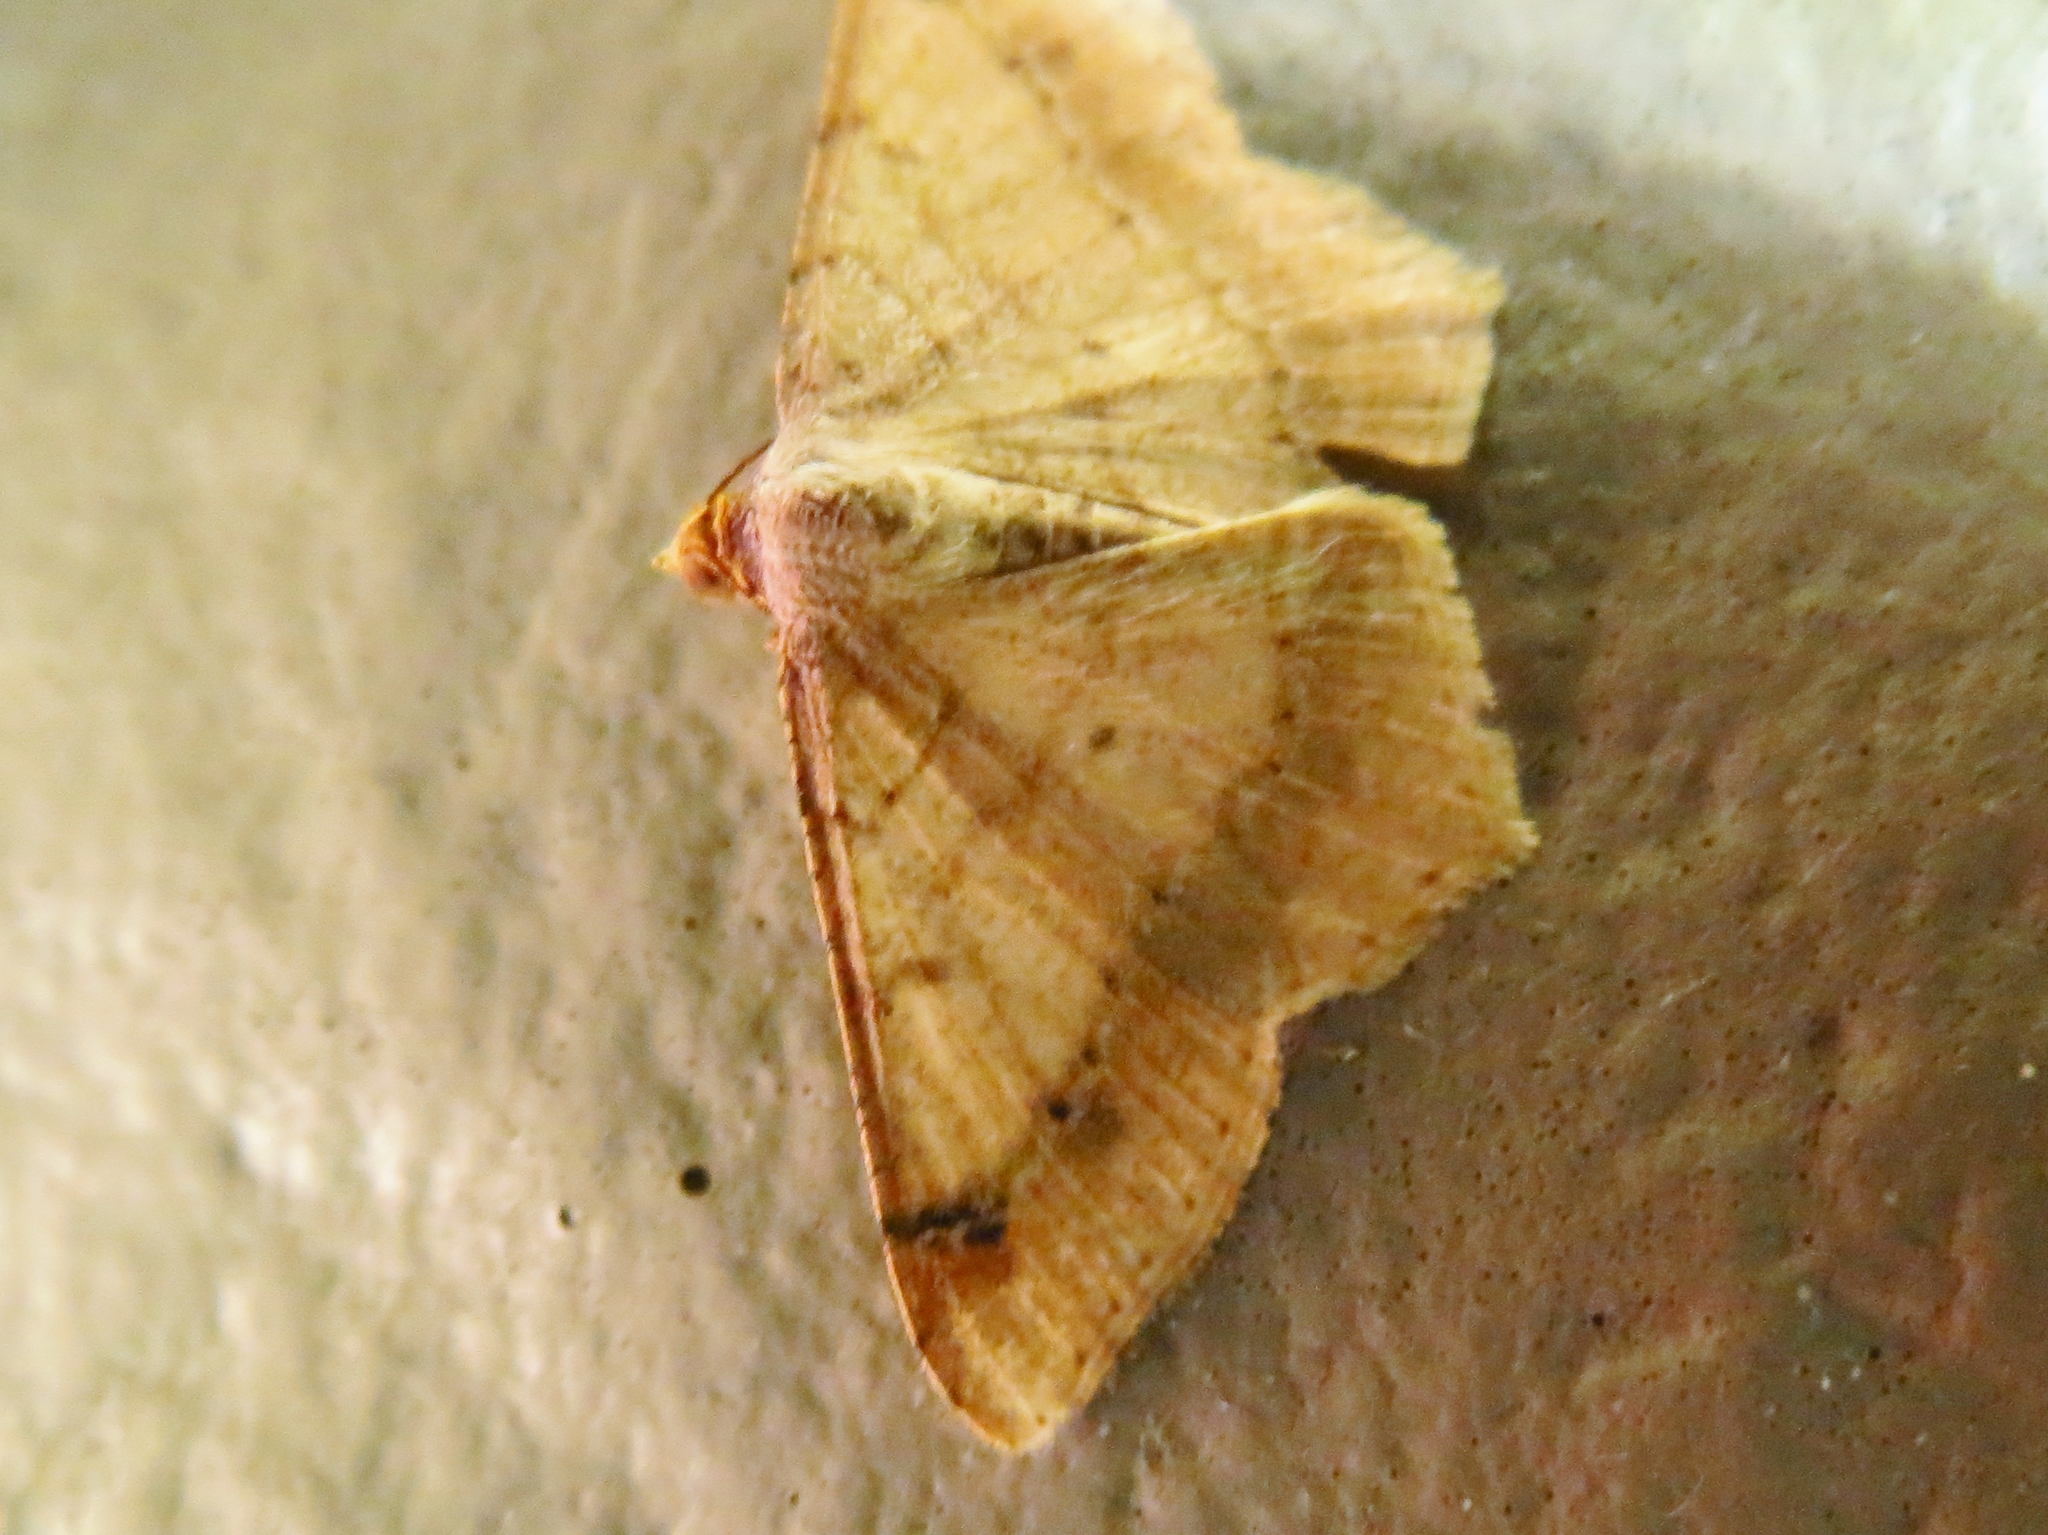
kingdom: Animalia
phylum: Arthropoda
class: Insecta
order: Lepidoptera
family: Geometridae
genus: Macaria
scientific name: Macaria abydata
